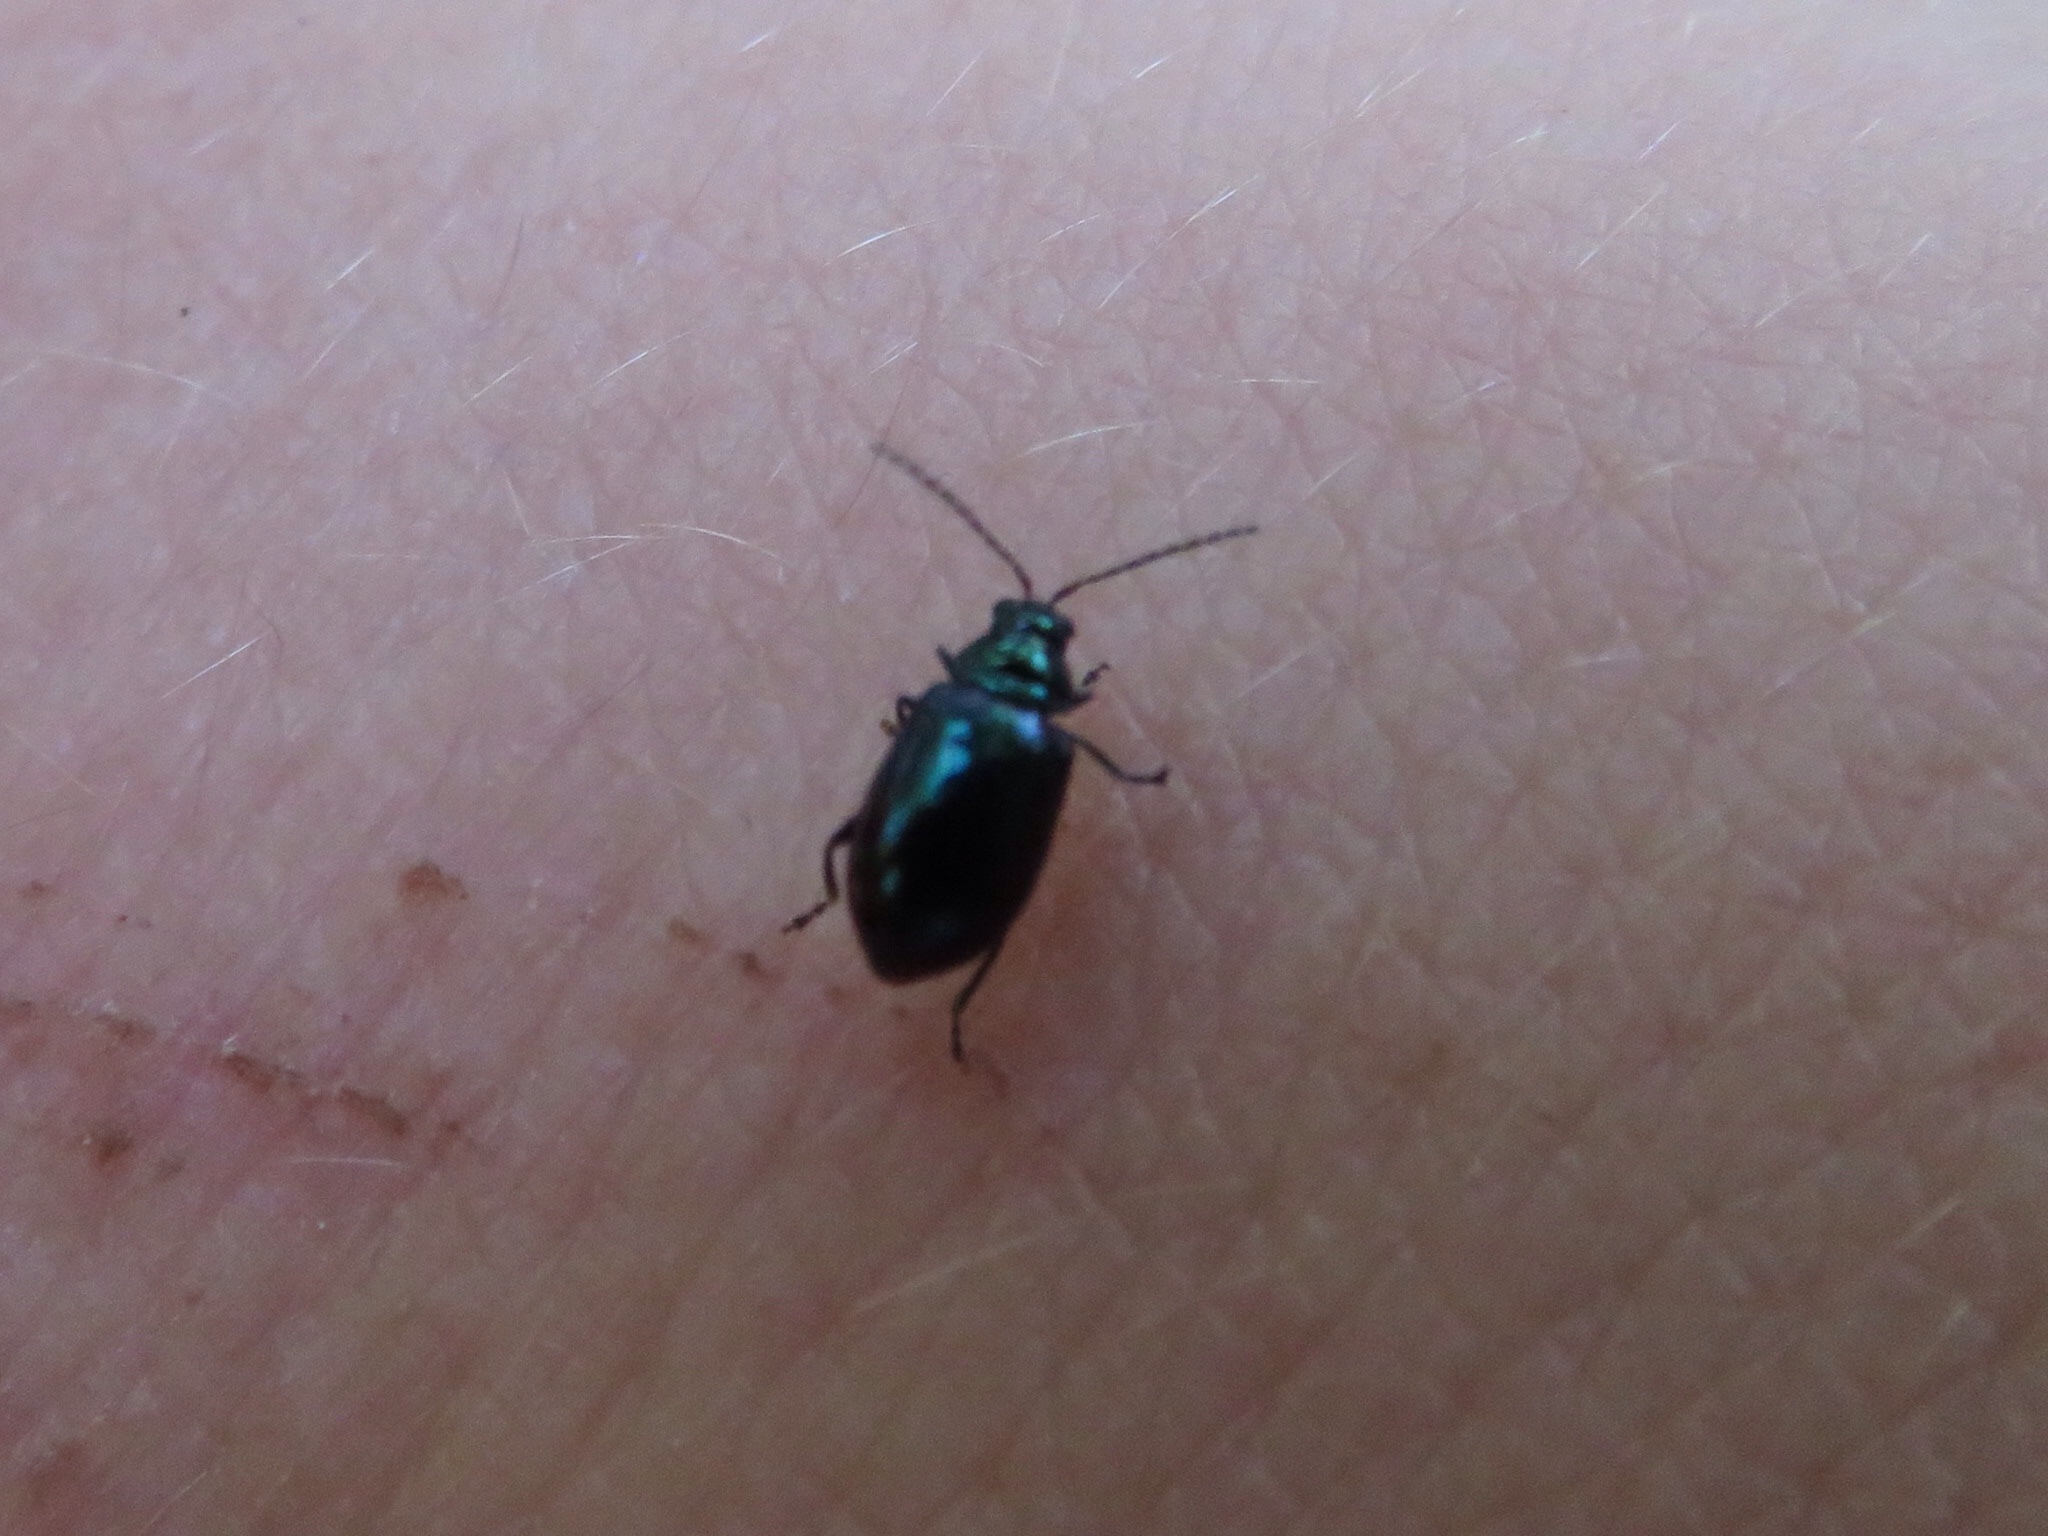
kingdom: Animalia
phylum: Arthropoda
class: Insecta
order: Coleoptera
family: Chrysomelidae
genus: Altica
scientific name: Altica chalybea
